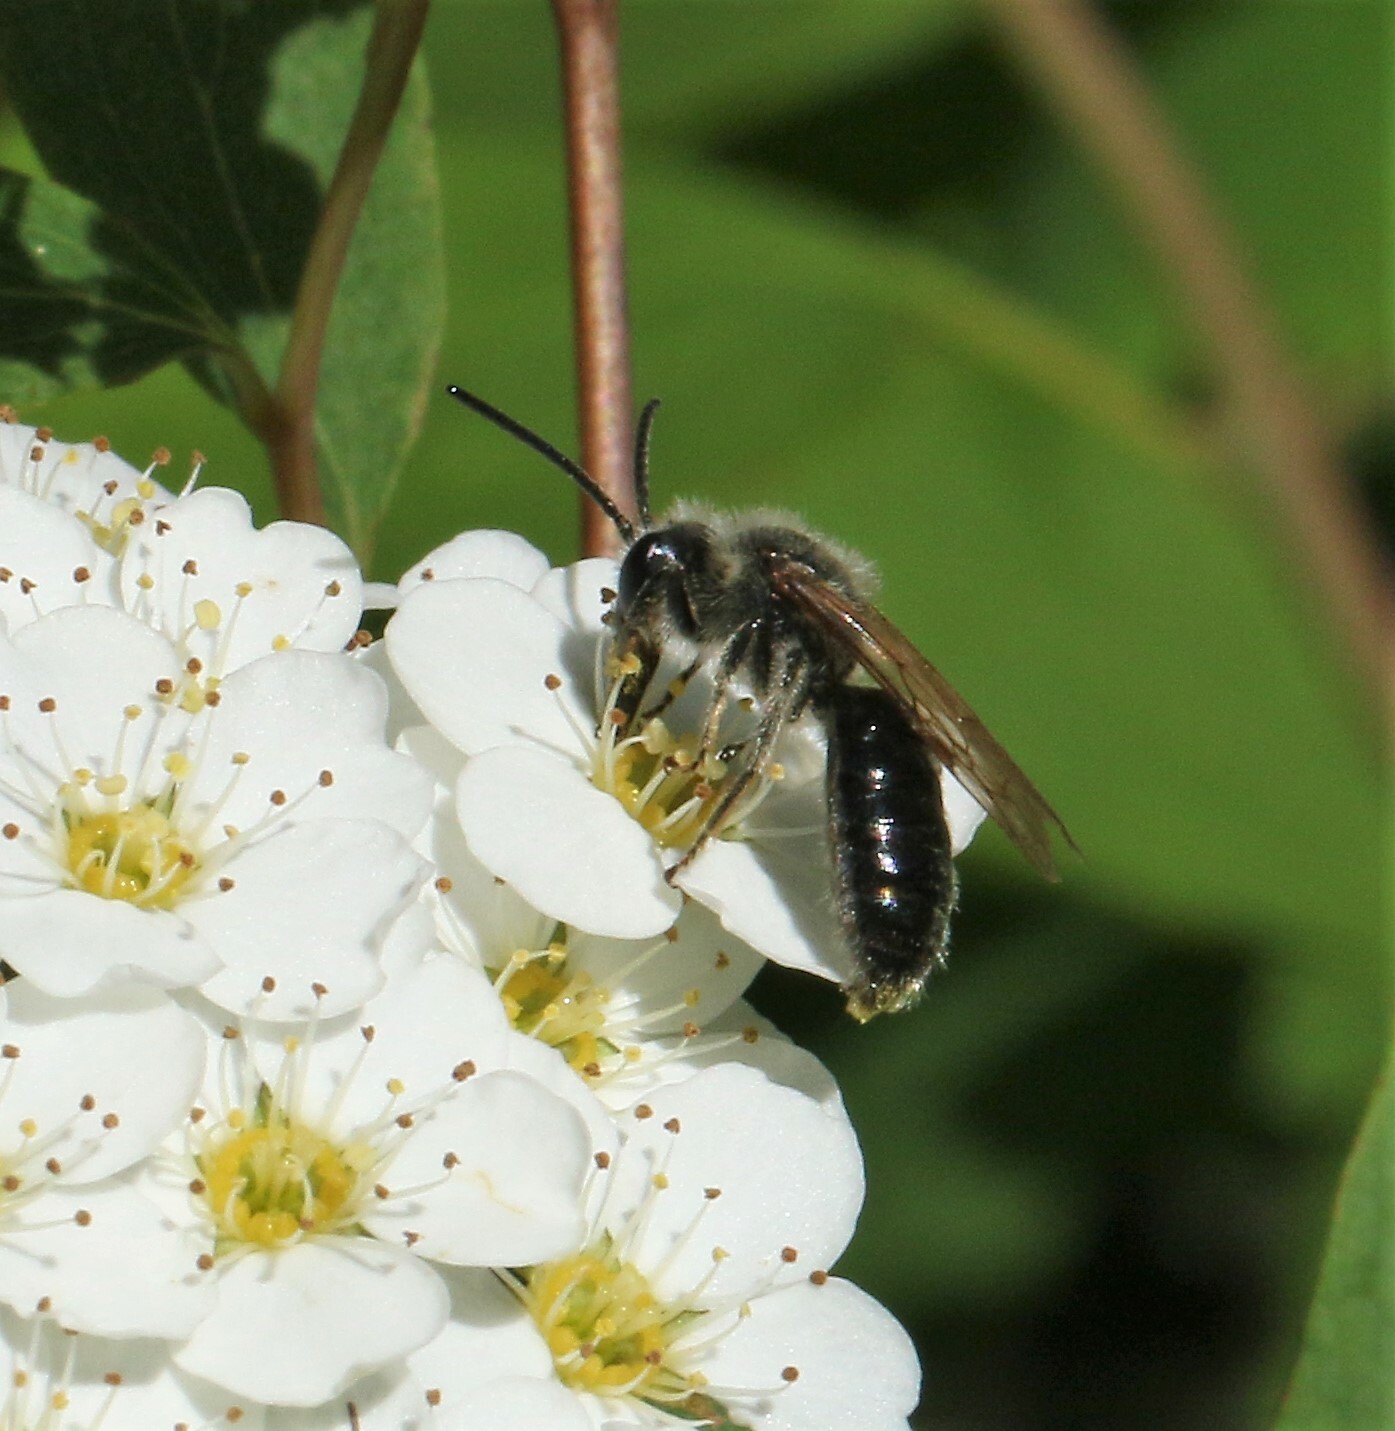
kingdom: Animalia
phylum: Arthropoda
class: Insecta
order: Hymenoptera
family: Andrenidae
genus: Andrena
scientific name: Andrena crataegi
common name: Hawthorn mining bee
